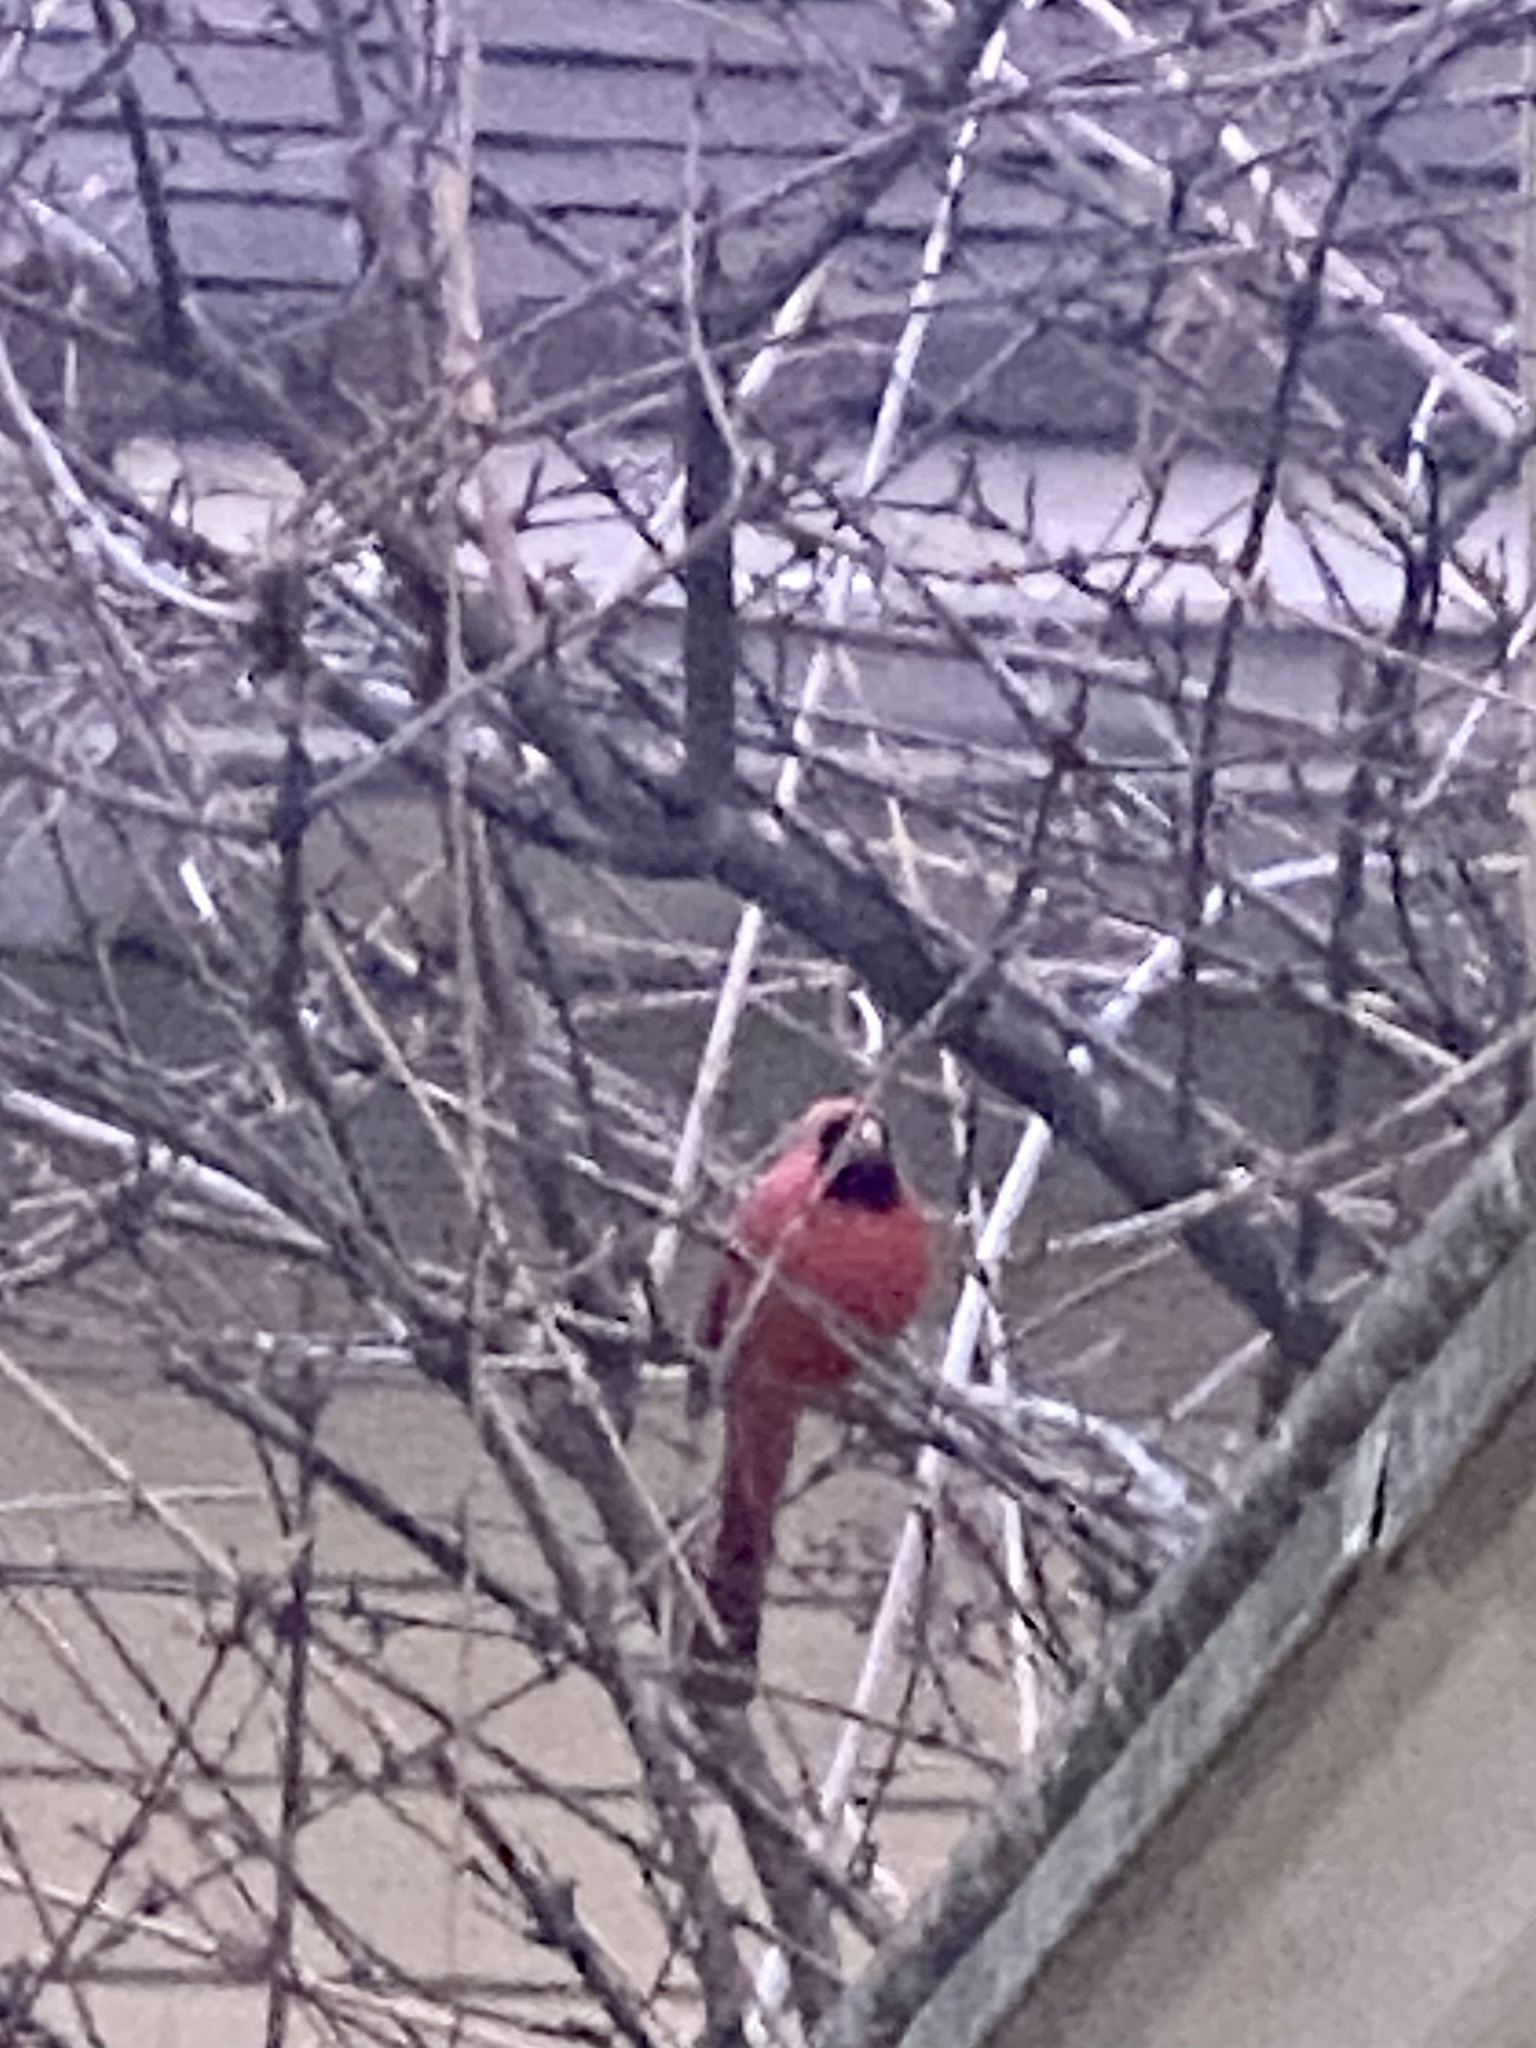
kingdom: Animalia
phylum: Chordata
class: Aves
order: Passeriformes
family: Cardinalidae
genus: Cardinalis
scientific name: Cardinalis cardinalis
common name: Northern cardinal
